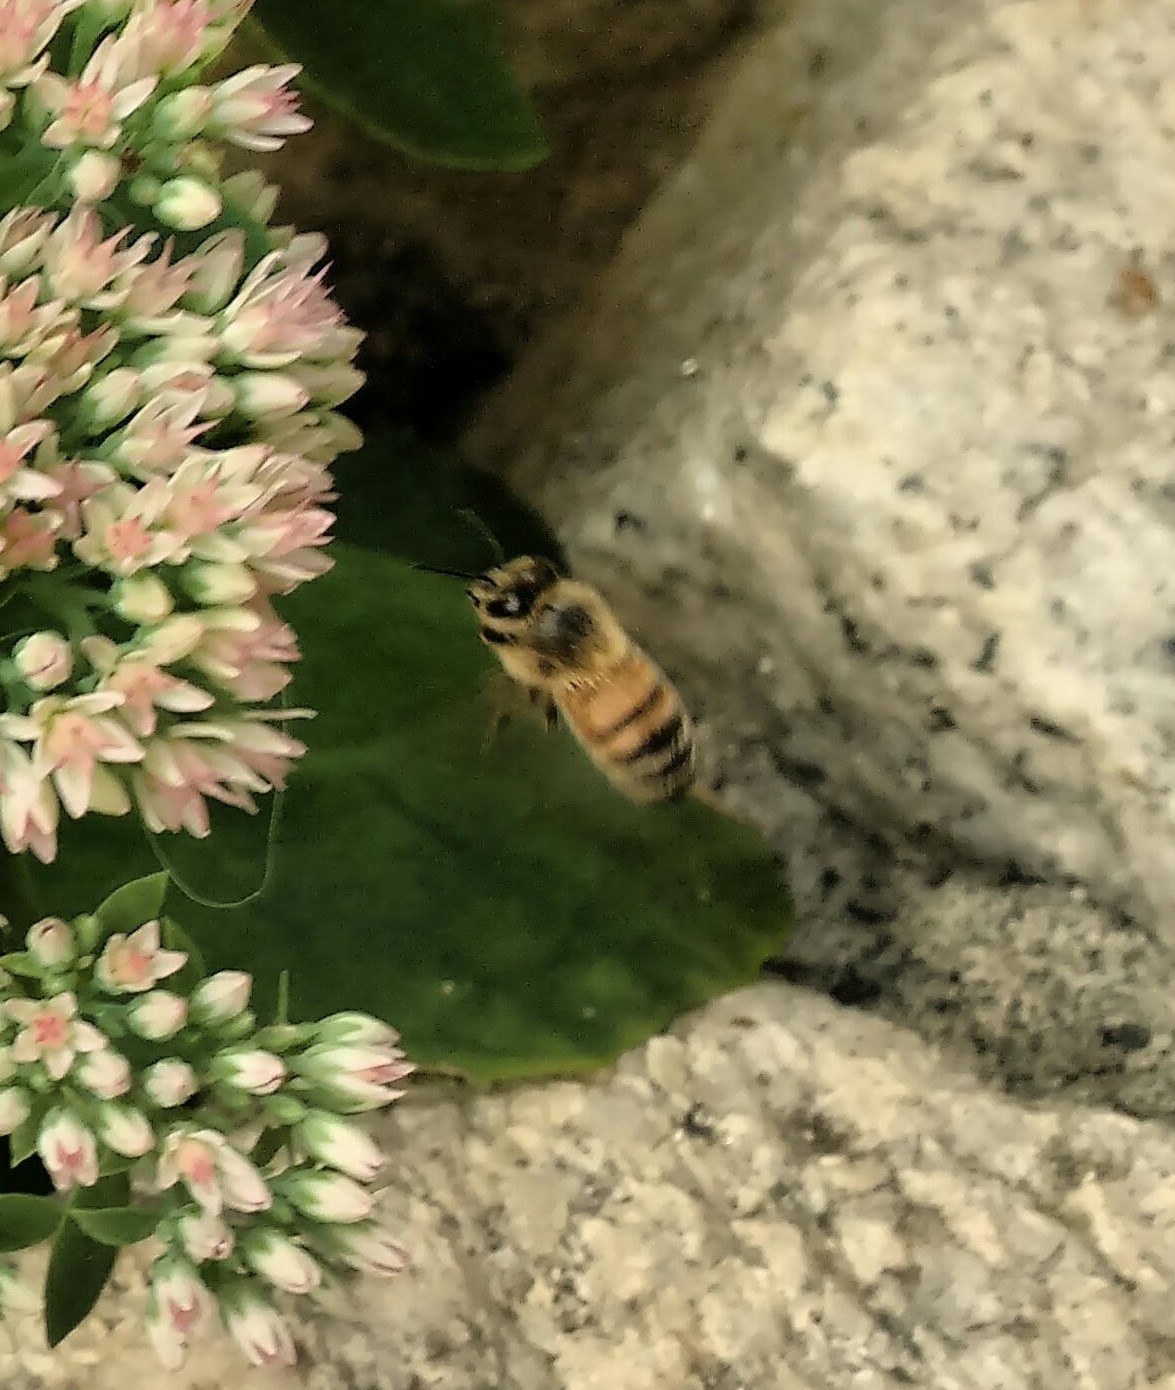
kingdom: Animalia
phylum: Arthropoda
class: Insecta
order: Hymenoptera
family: Apidae
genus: Apis
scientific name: Apis mellifera
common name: Honey bee
